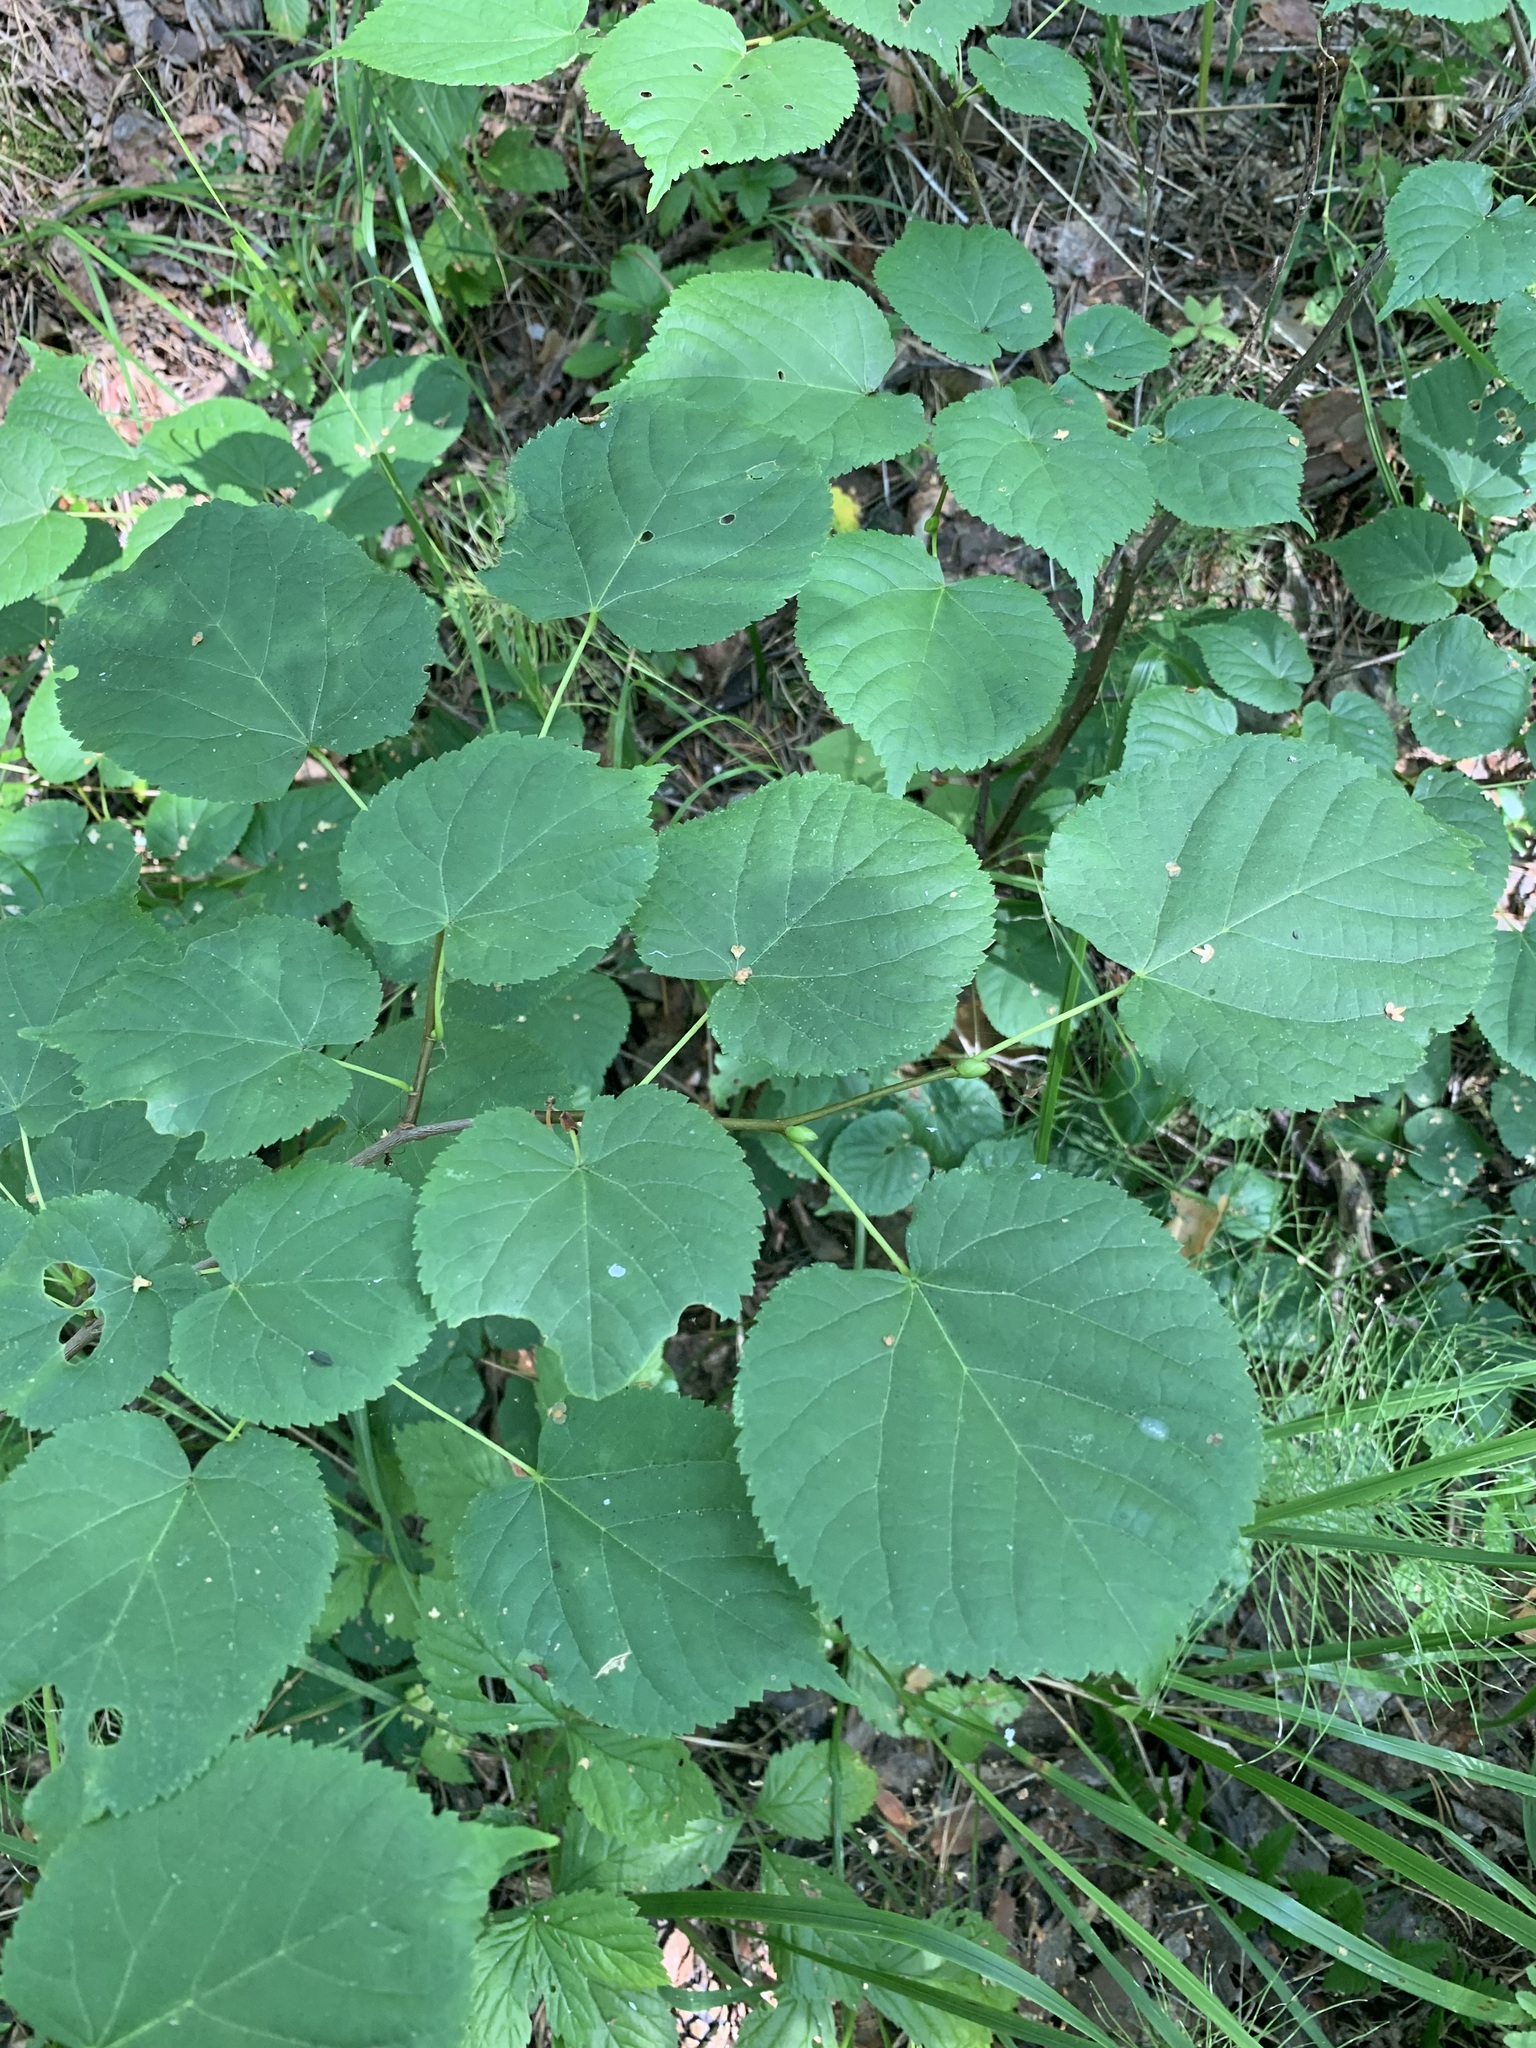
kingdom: Plantae
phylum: Tracheophyta
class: Magnoliopsida
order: Malvales
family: Malvaceae
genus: Tilia
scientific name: Tilia cordata
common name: Small-leaved lime
